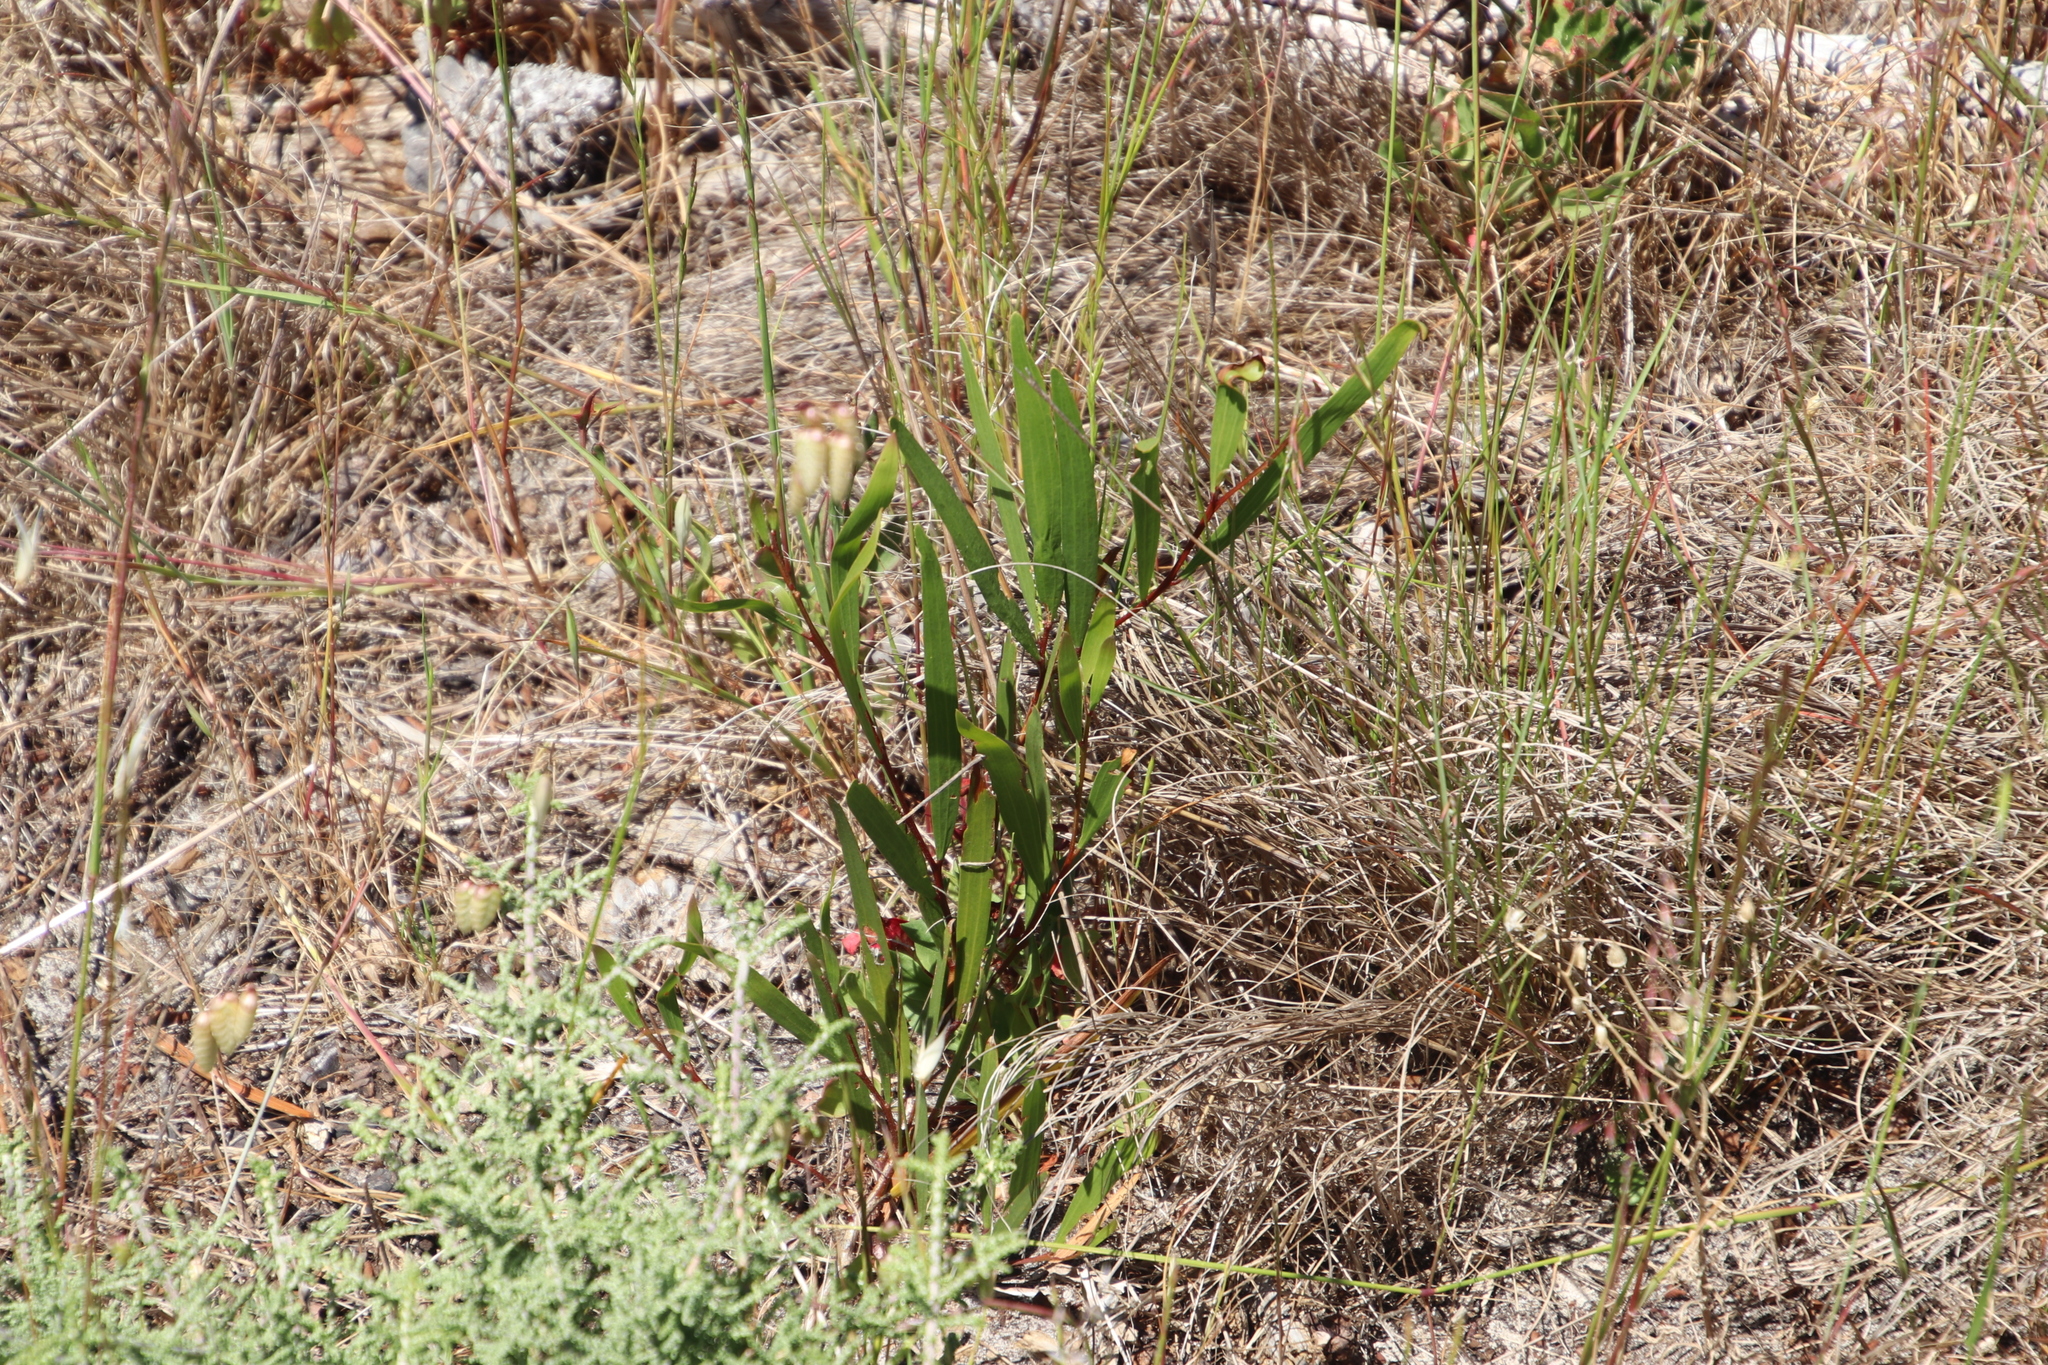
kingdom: Plantae
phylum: Tracheophyta
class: Magnoliopsida
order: Fabales
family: Fabaceae
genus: Acacia
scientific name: Acacia longifolia
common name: Sydney golden wattle
